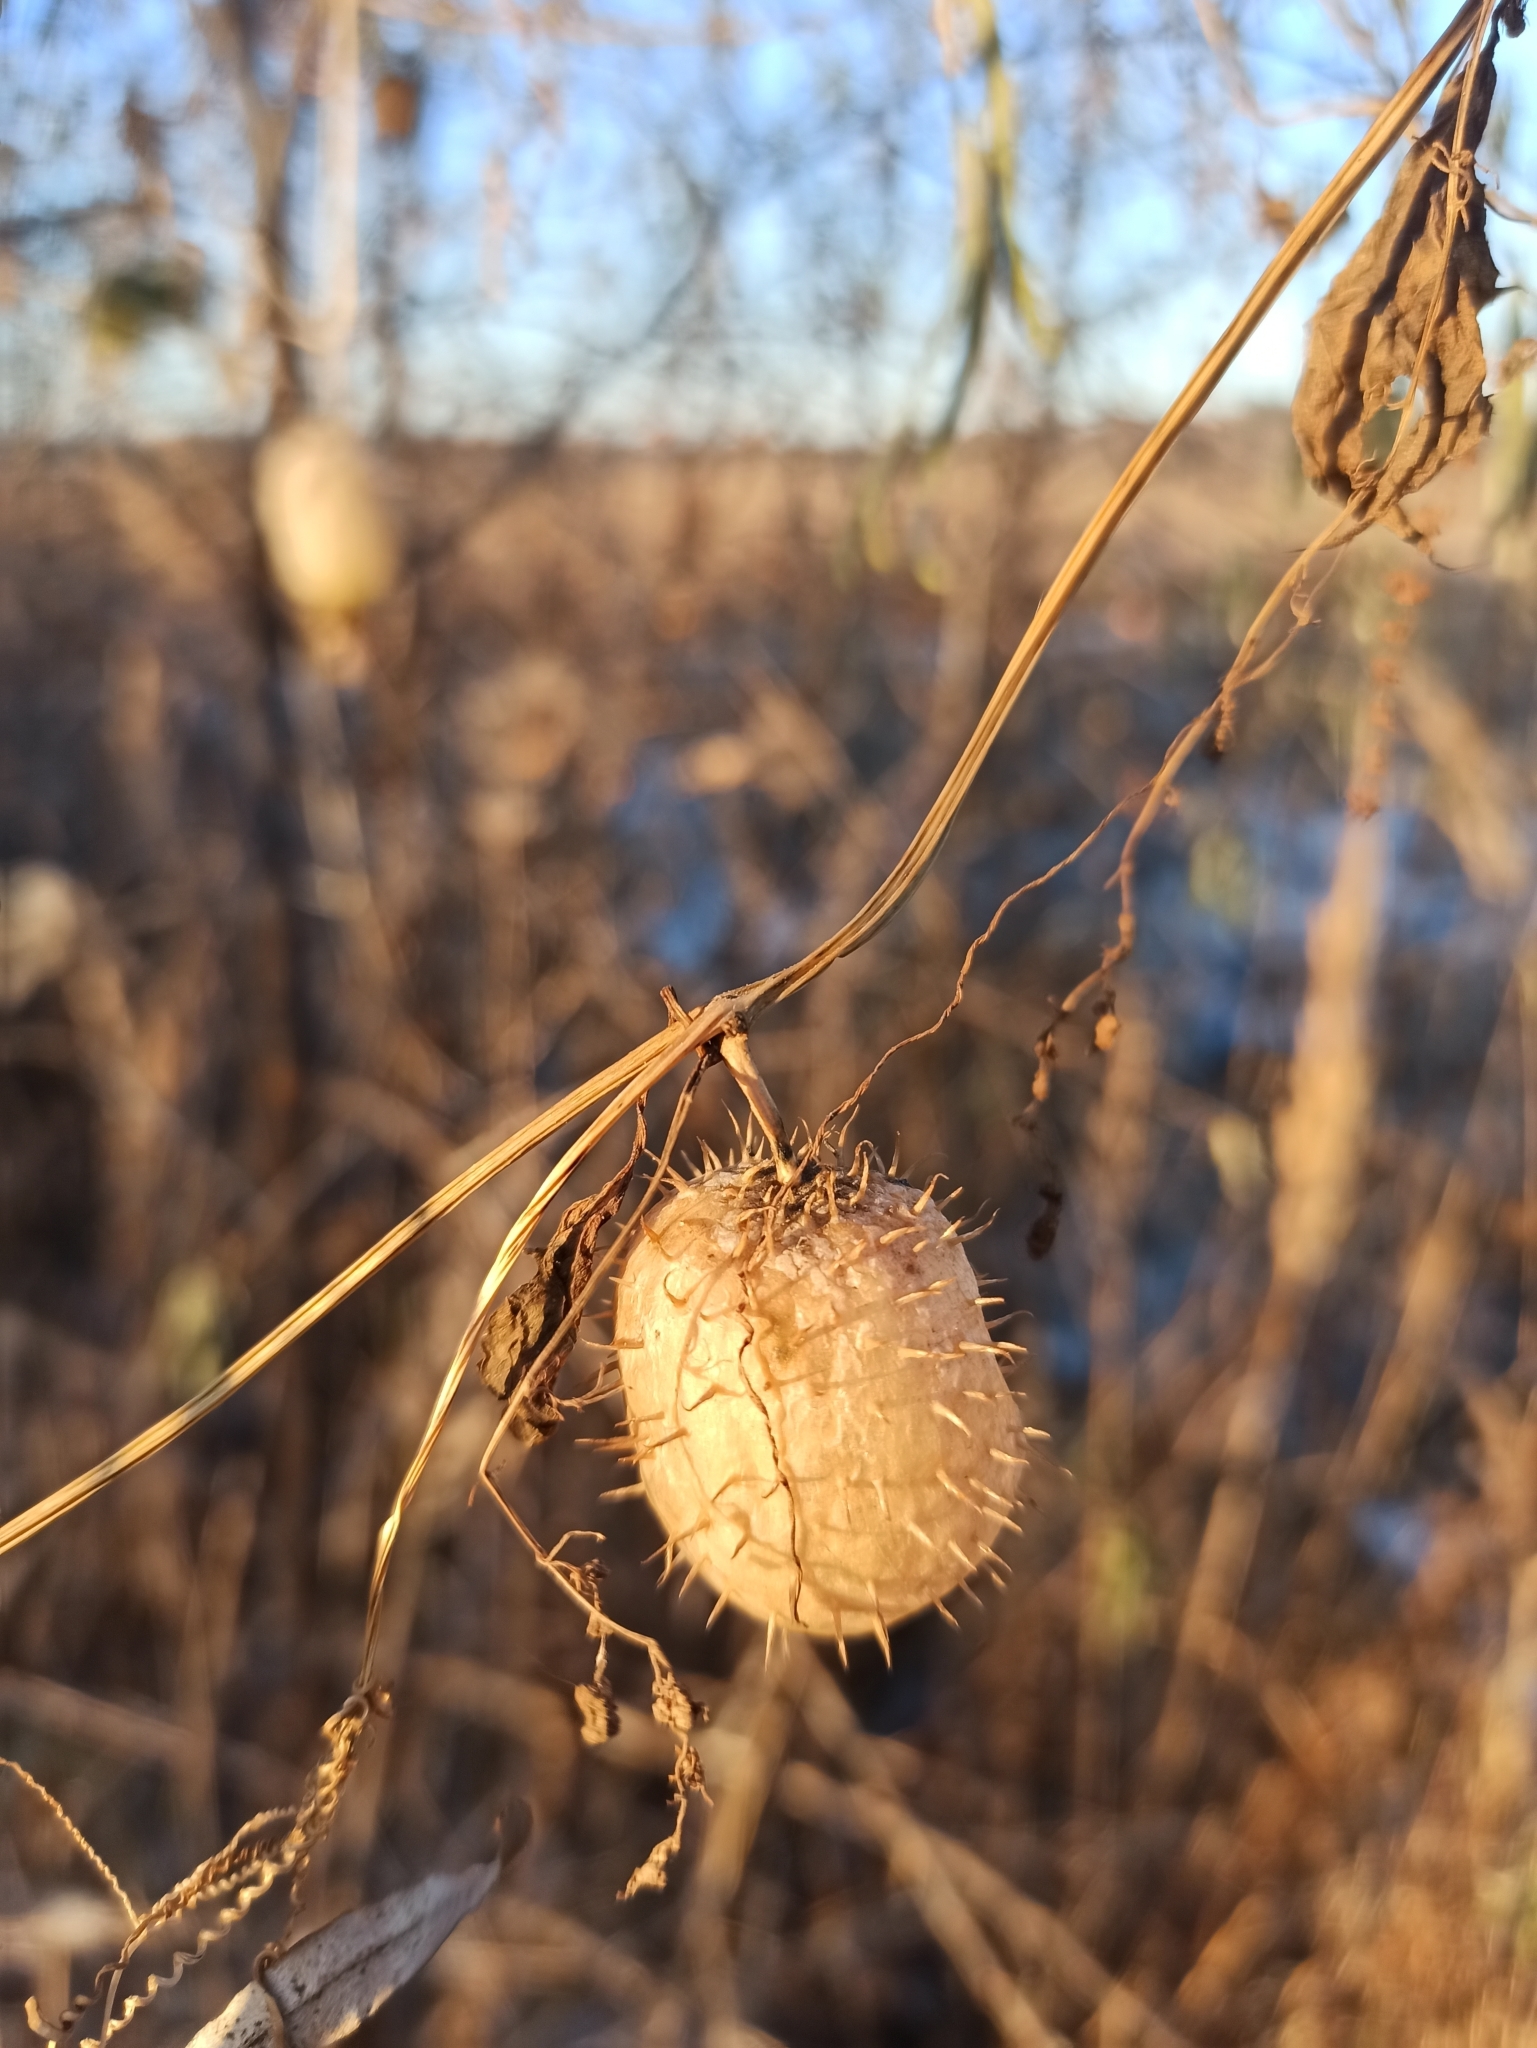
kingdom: Plantae
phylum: Tracheophyta
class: Magnoliopsida
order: Cucurbitales
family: Cucurbitaceae
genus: Echinocystis
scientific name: Echinocystis lobata
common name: Wild cucumber
